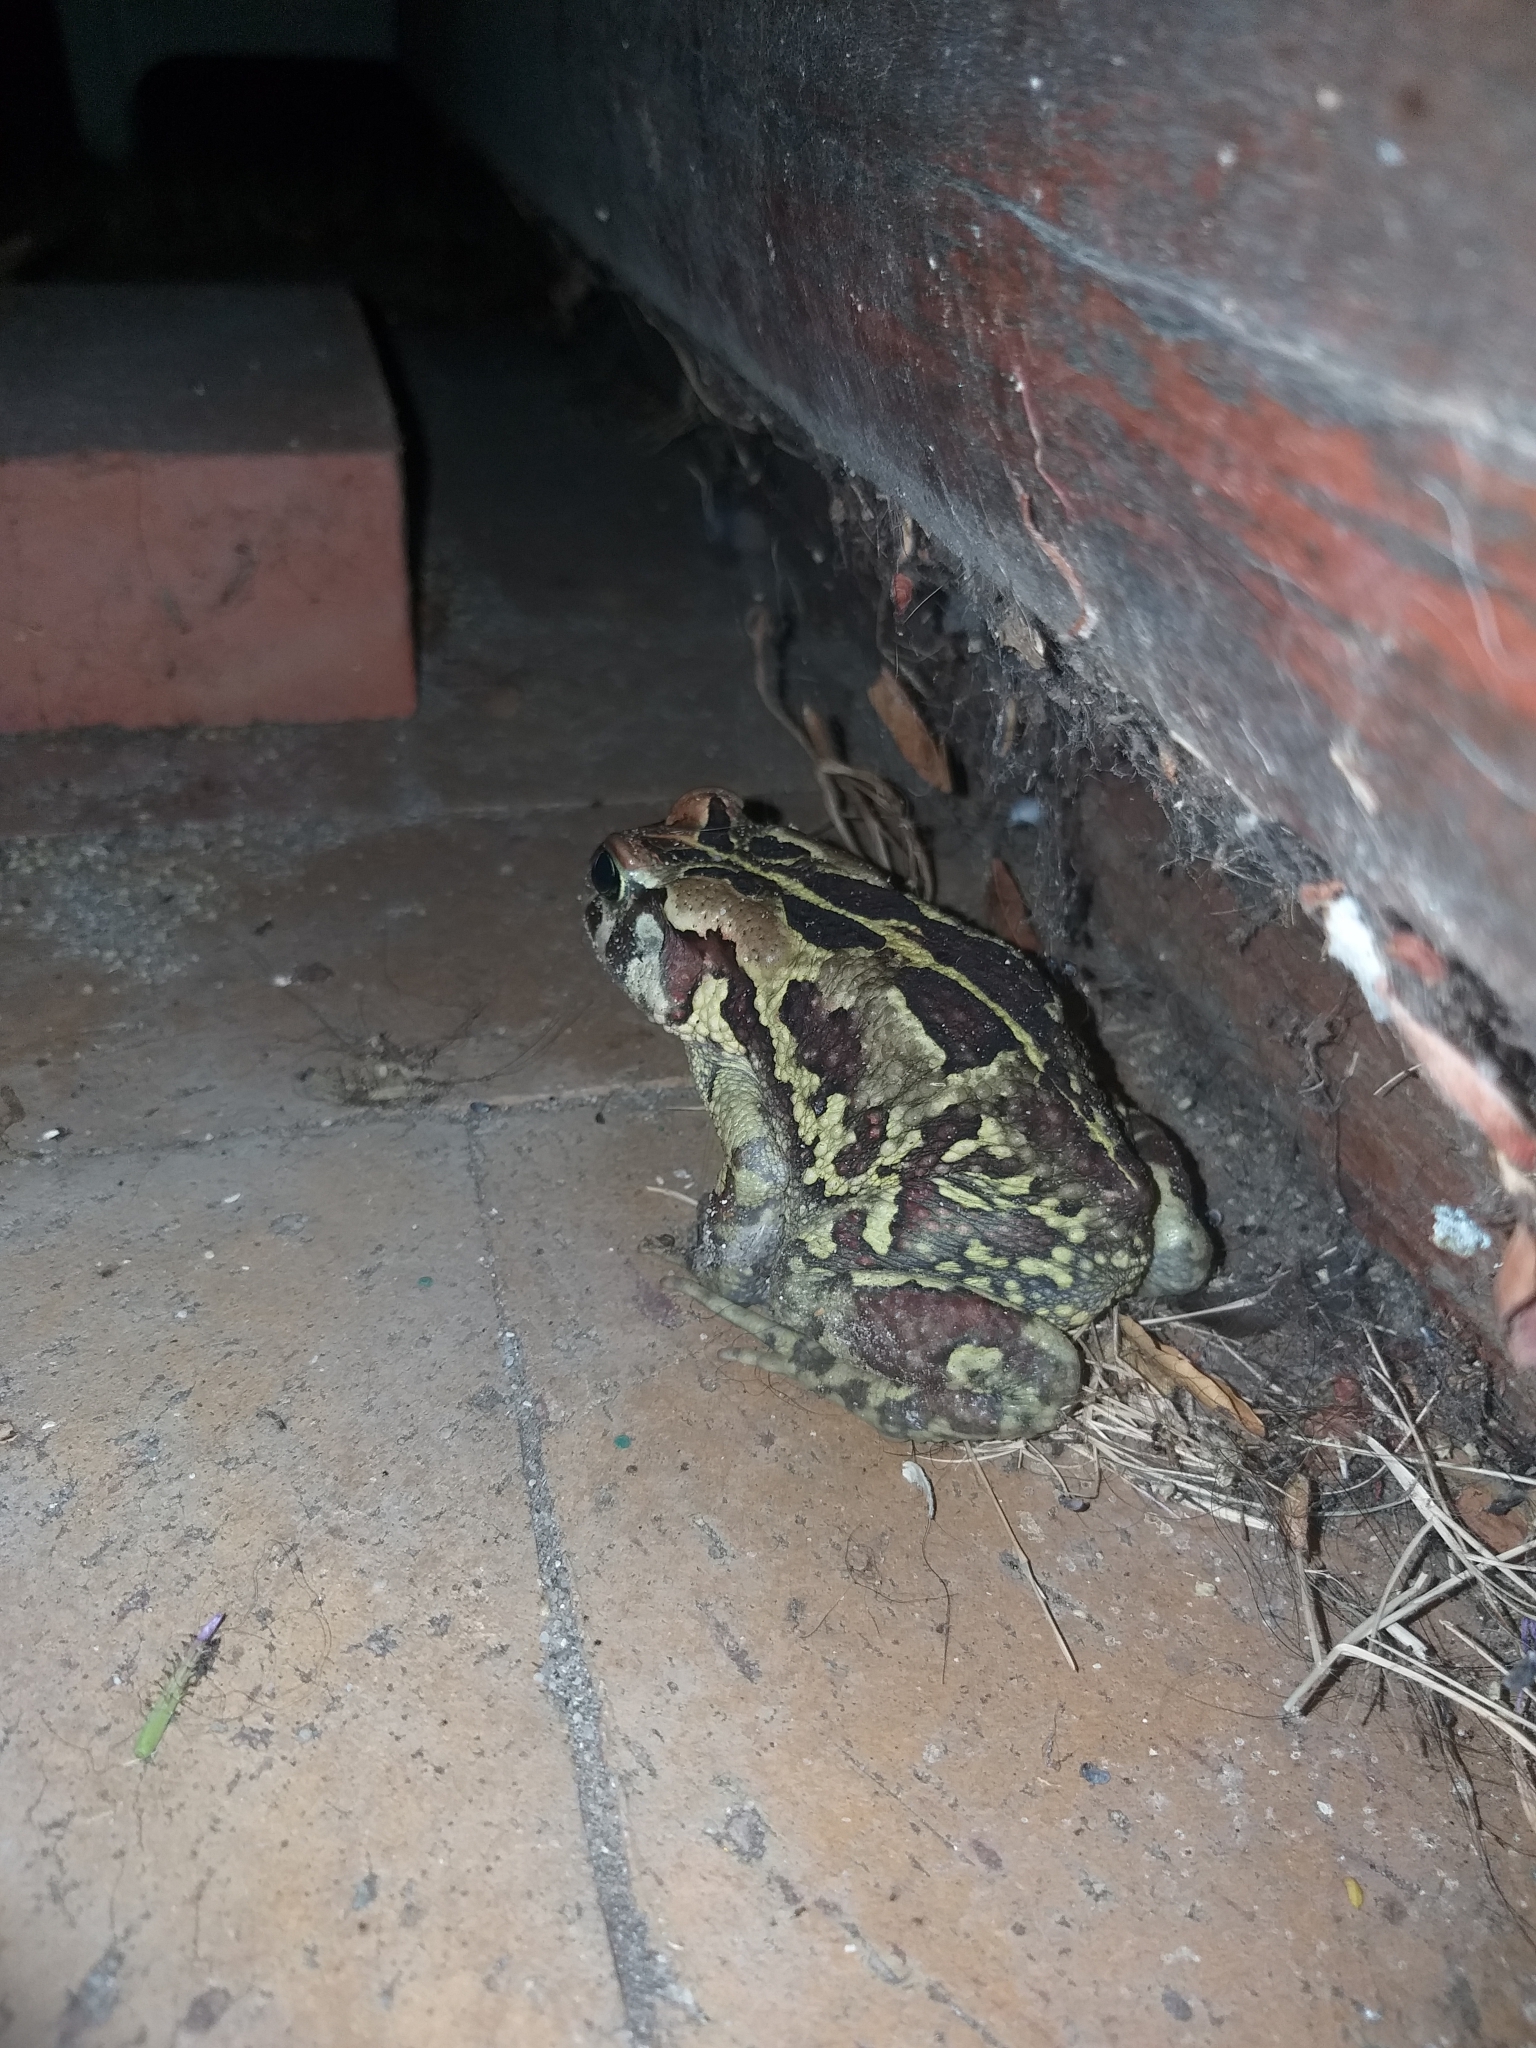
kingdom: Animalia
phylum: Chordata
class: Amphibia
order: Anura
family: Bufonidae
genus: Sclerophrys
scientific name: Sclerophrys pantherina
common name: Panther toad
